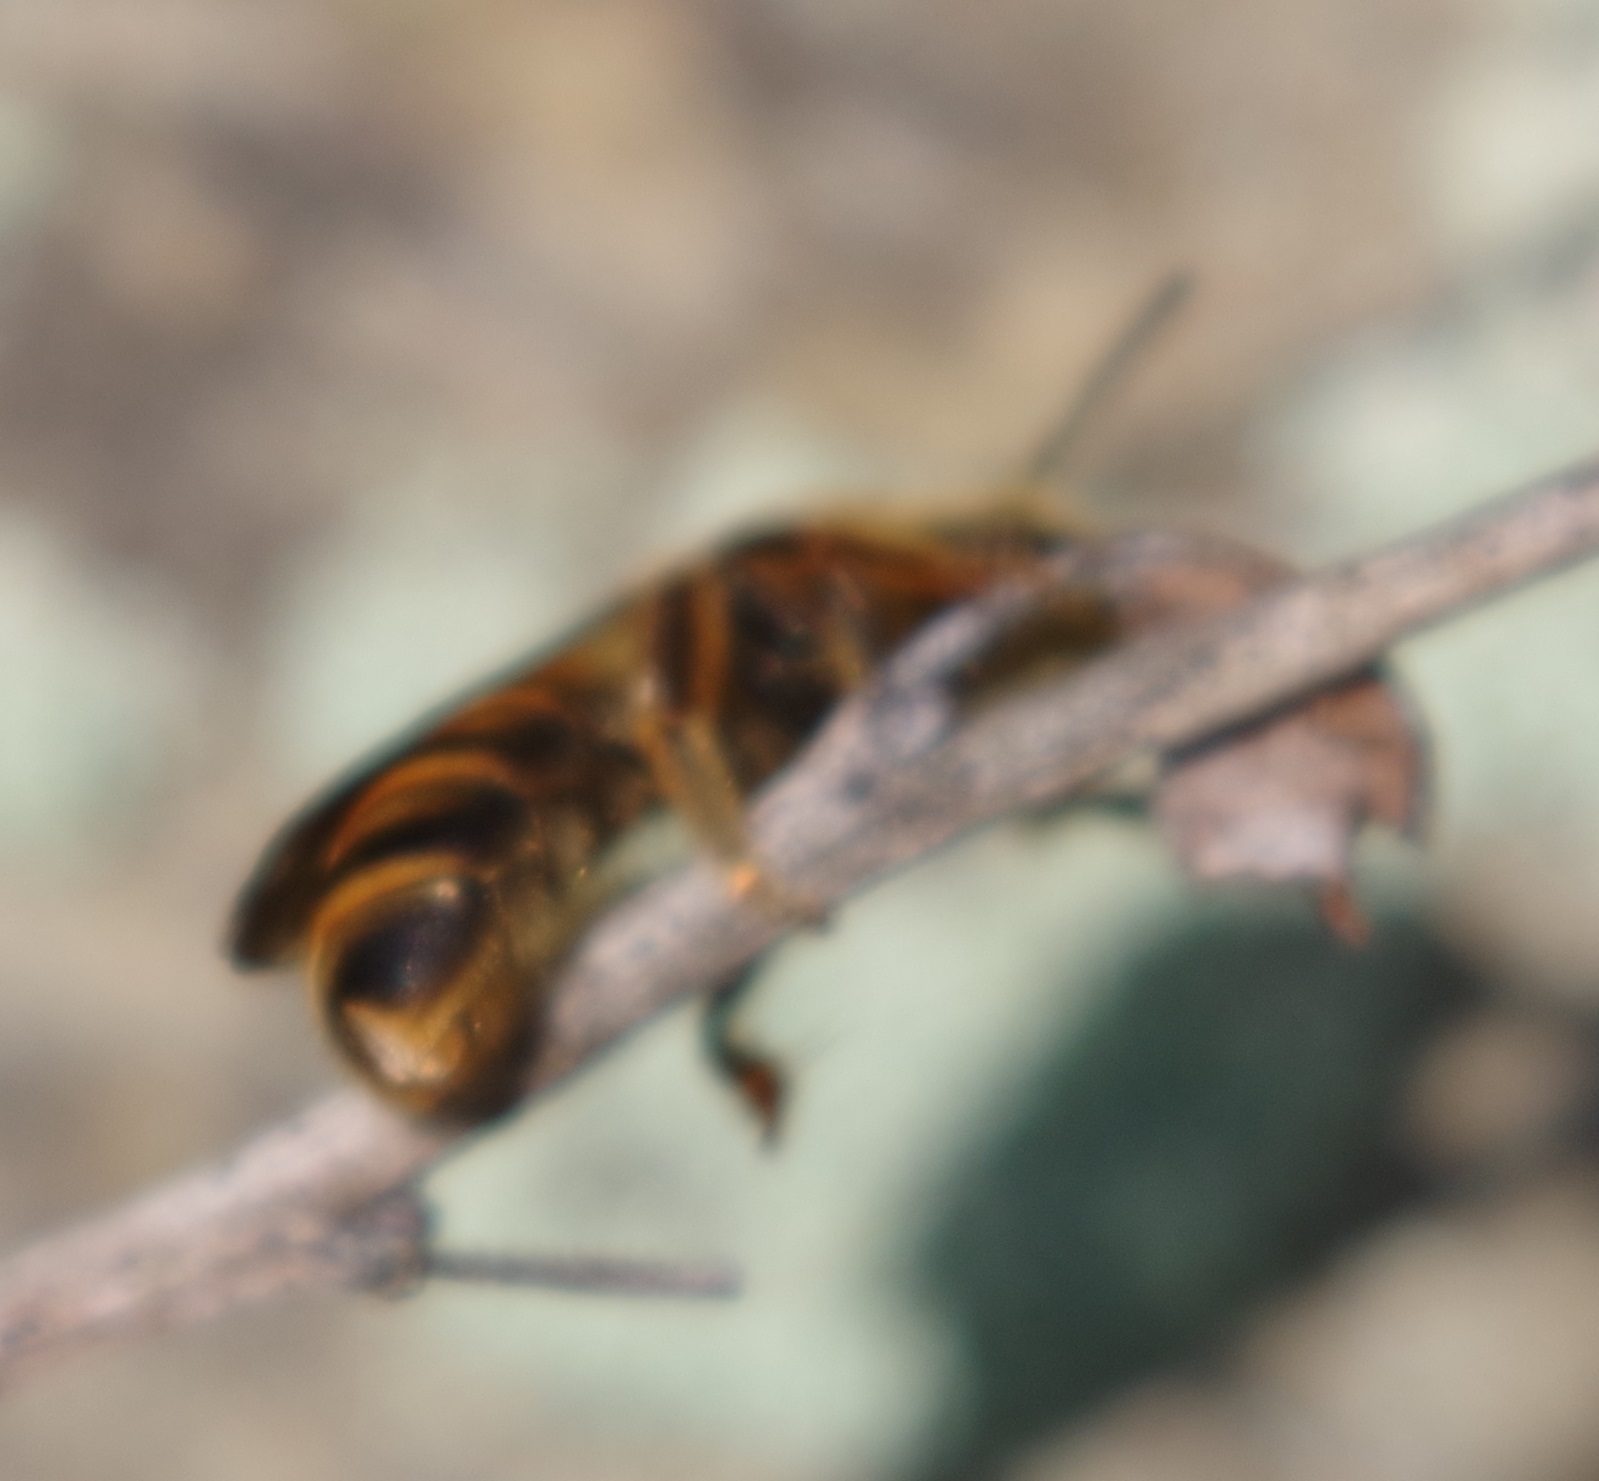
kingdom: Animalia
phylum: Arthropoda
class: Insecta
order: Hymenoptera
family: Halictidae
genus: Halictus
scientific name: Halictus scabiosae
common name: Great banded furrow bee
